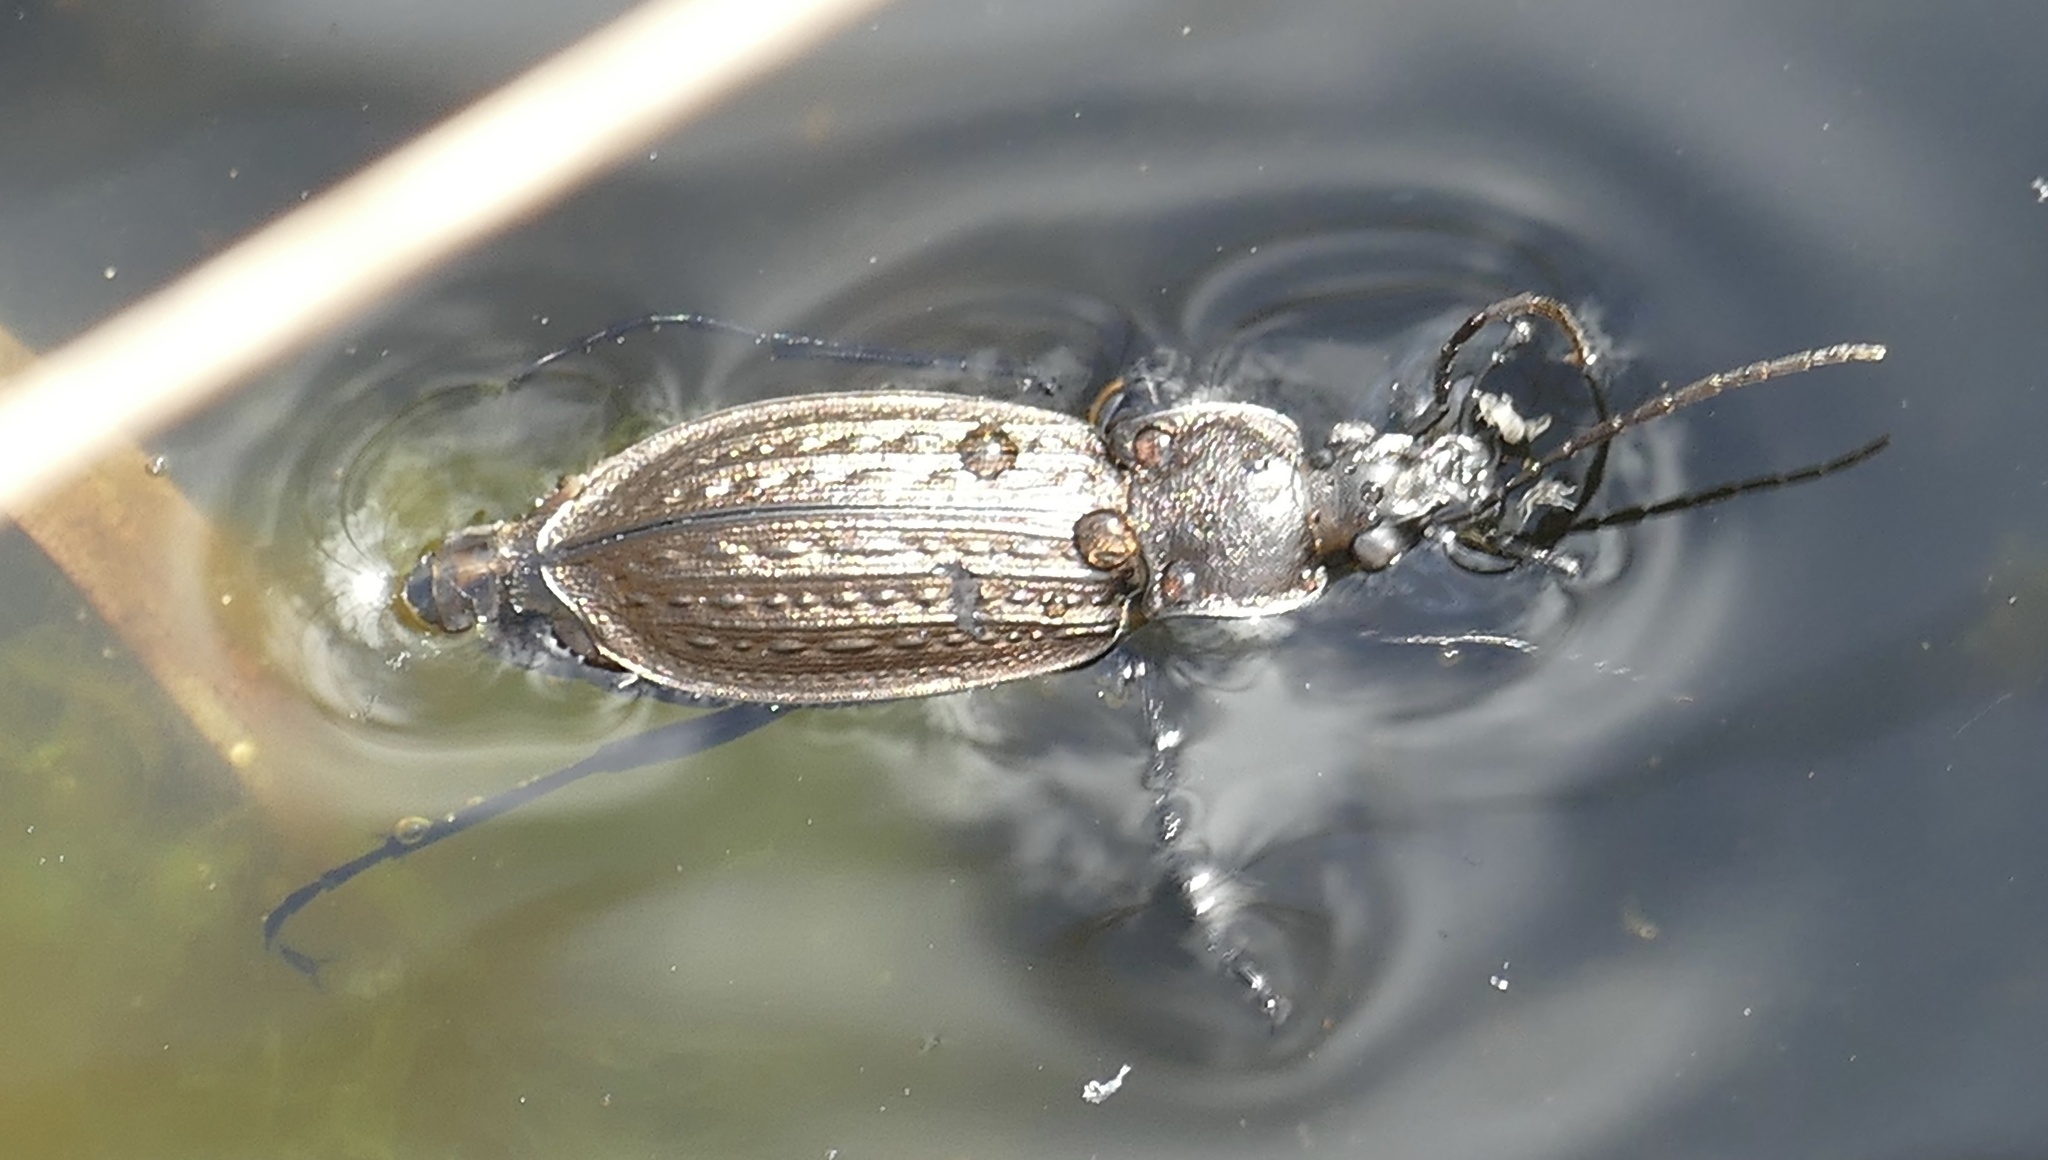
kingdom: Animalia
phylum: Arthropoda
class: Insecta
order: Coleoptera
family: Carabidae
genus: Carabus
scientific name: Carabus granulatus
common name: Granulate ground beetle
